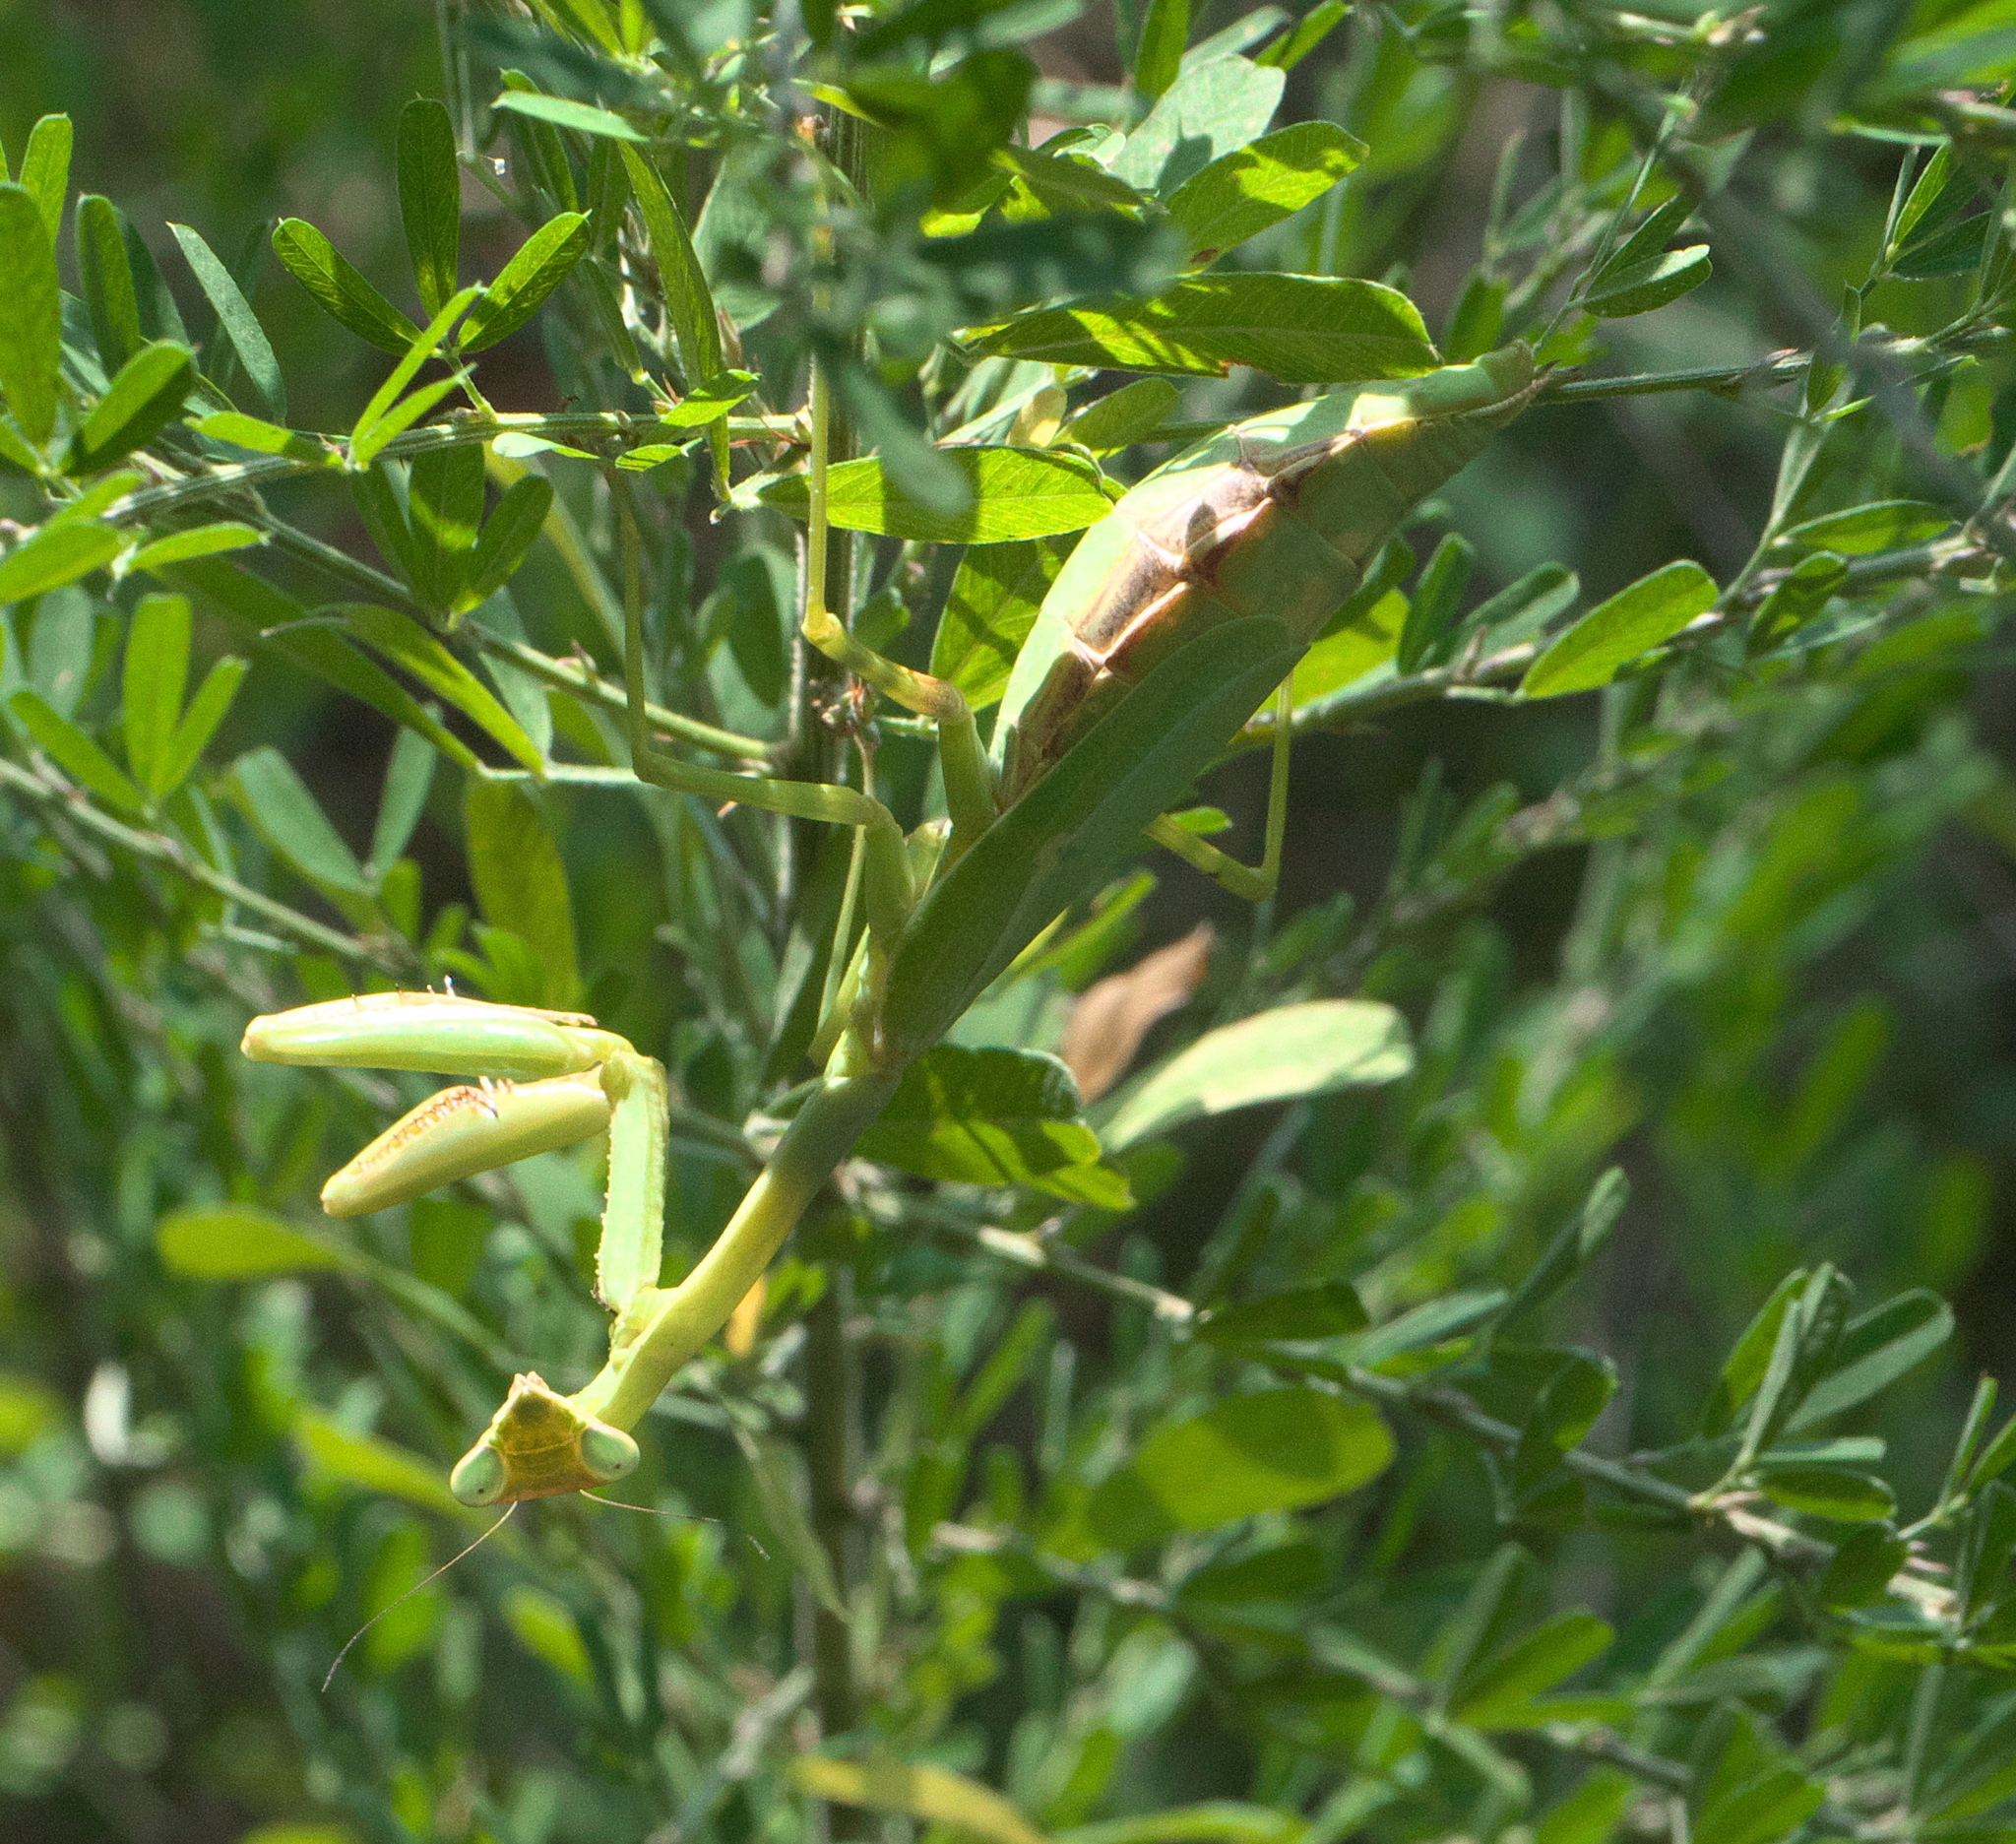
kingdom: Animalia
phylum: Arthropoda
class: Insecta
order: Mantodea
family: Mantidae
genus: Stagmomantis
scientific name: Stagmomantis carolina
